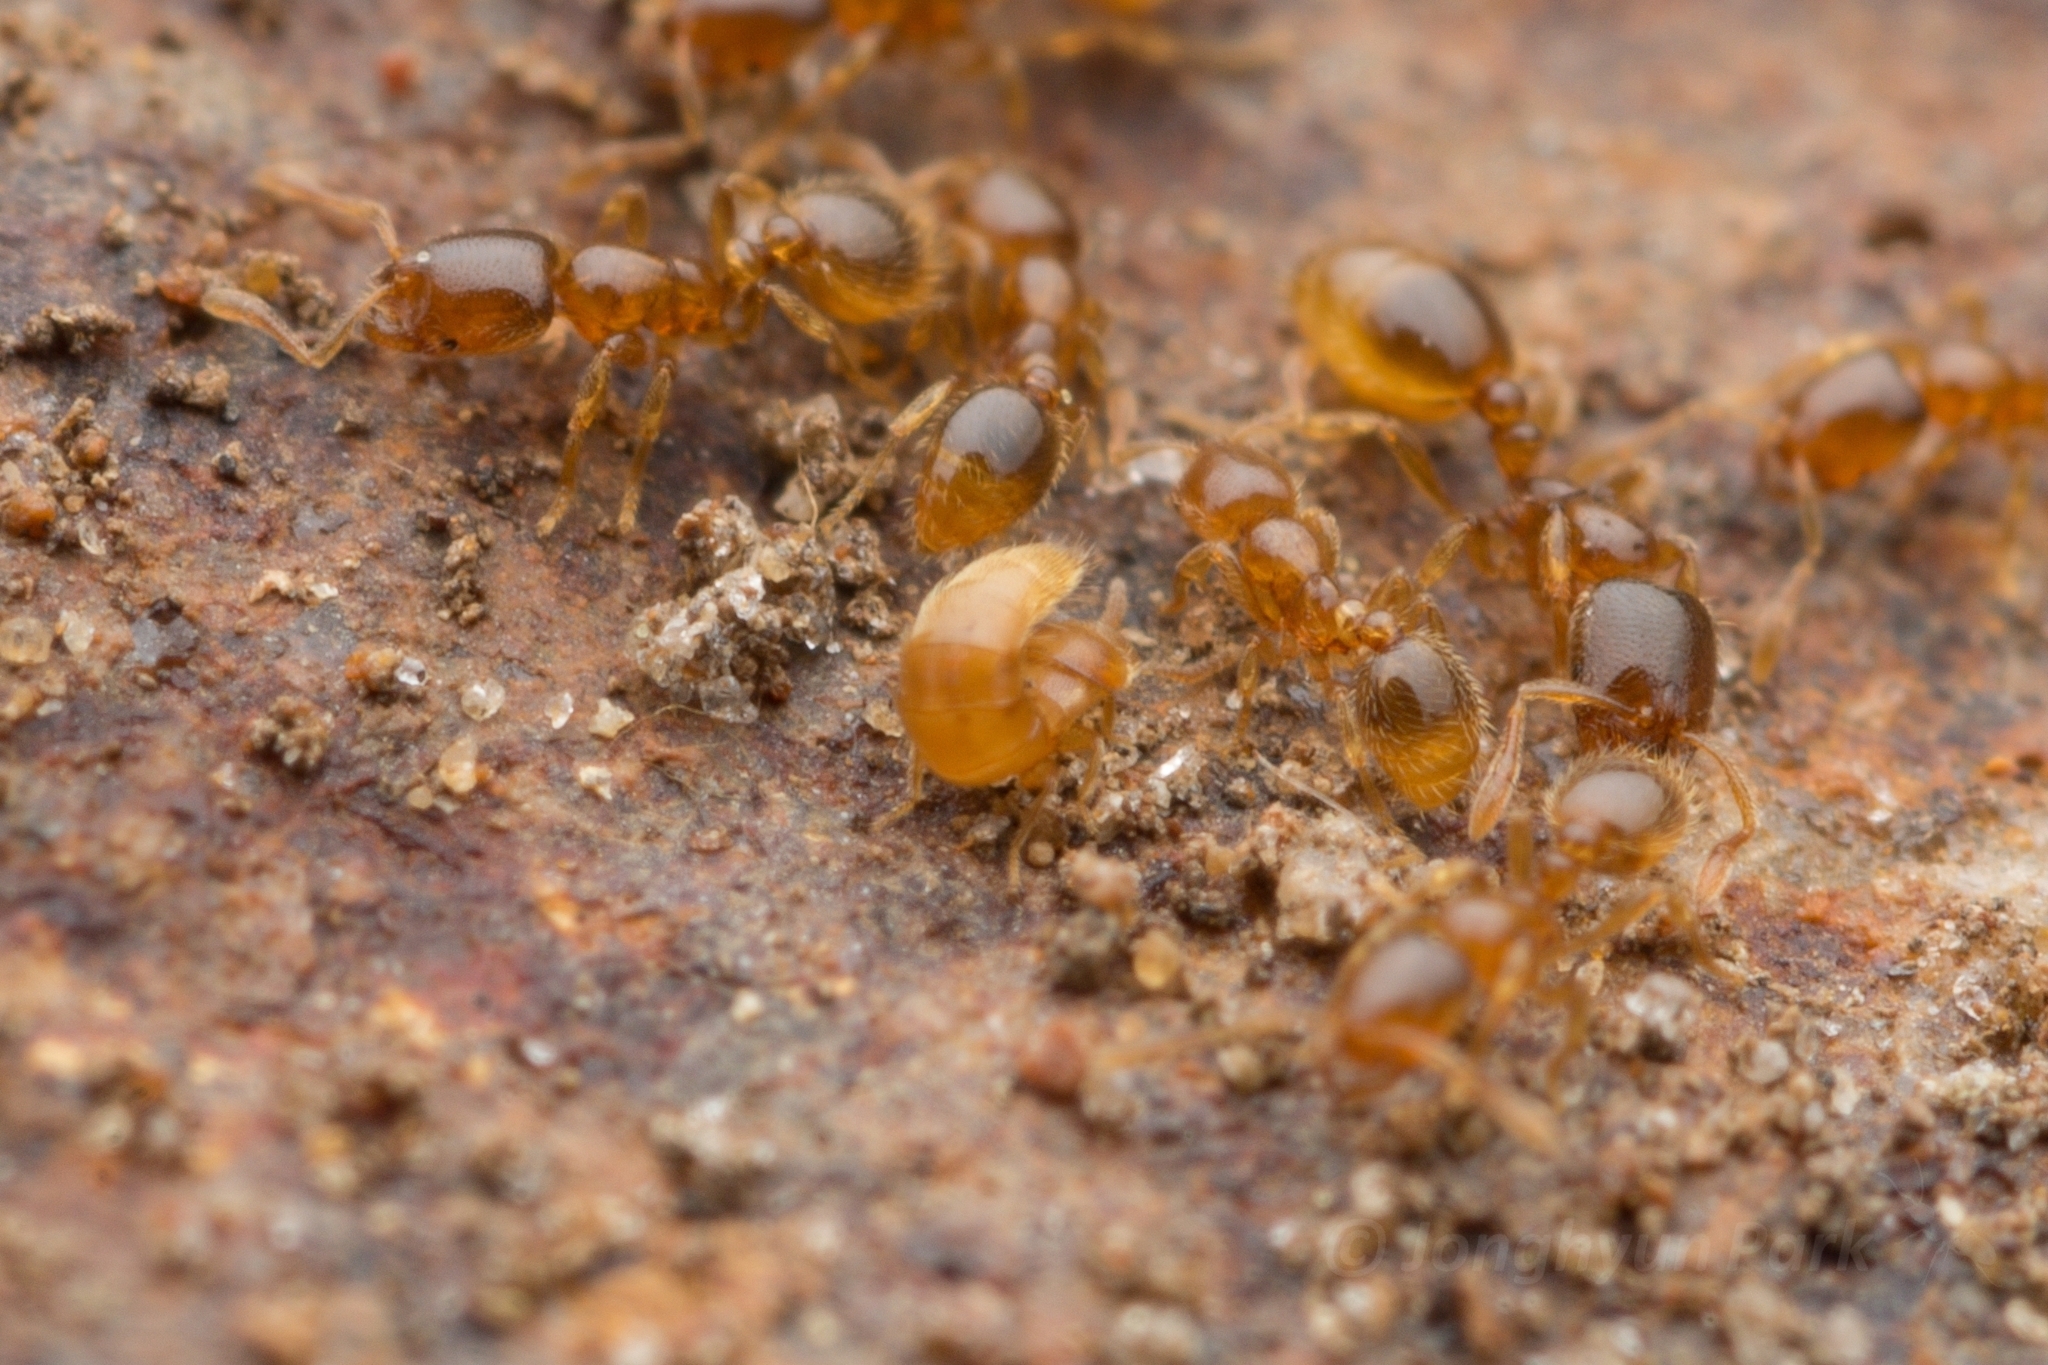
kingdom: Animalia
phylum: Arthropoda
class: Insecta
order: Coleoptera
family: Staphylinidae
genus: Diploxenus
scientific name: Diploxenus kubotai
